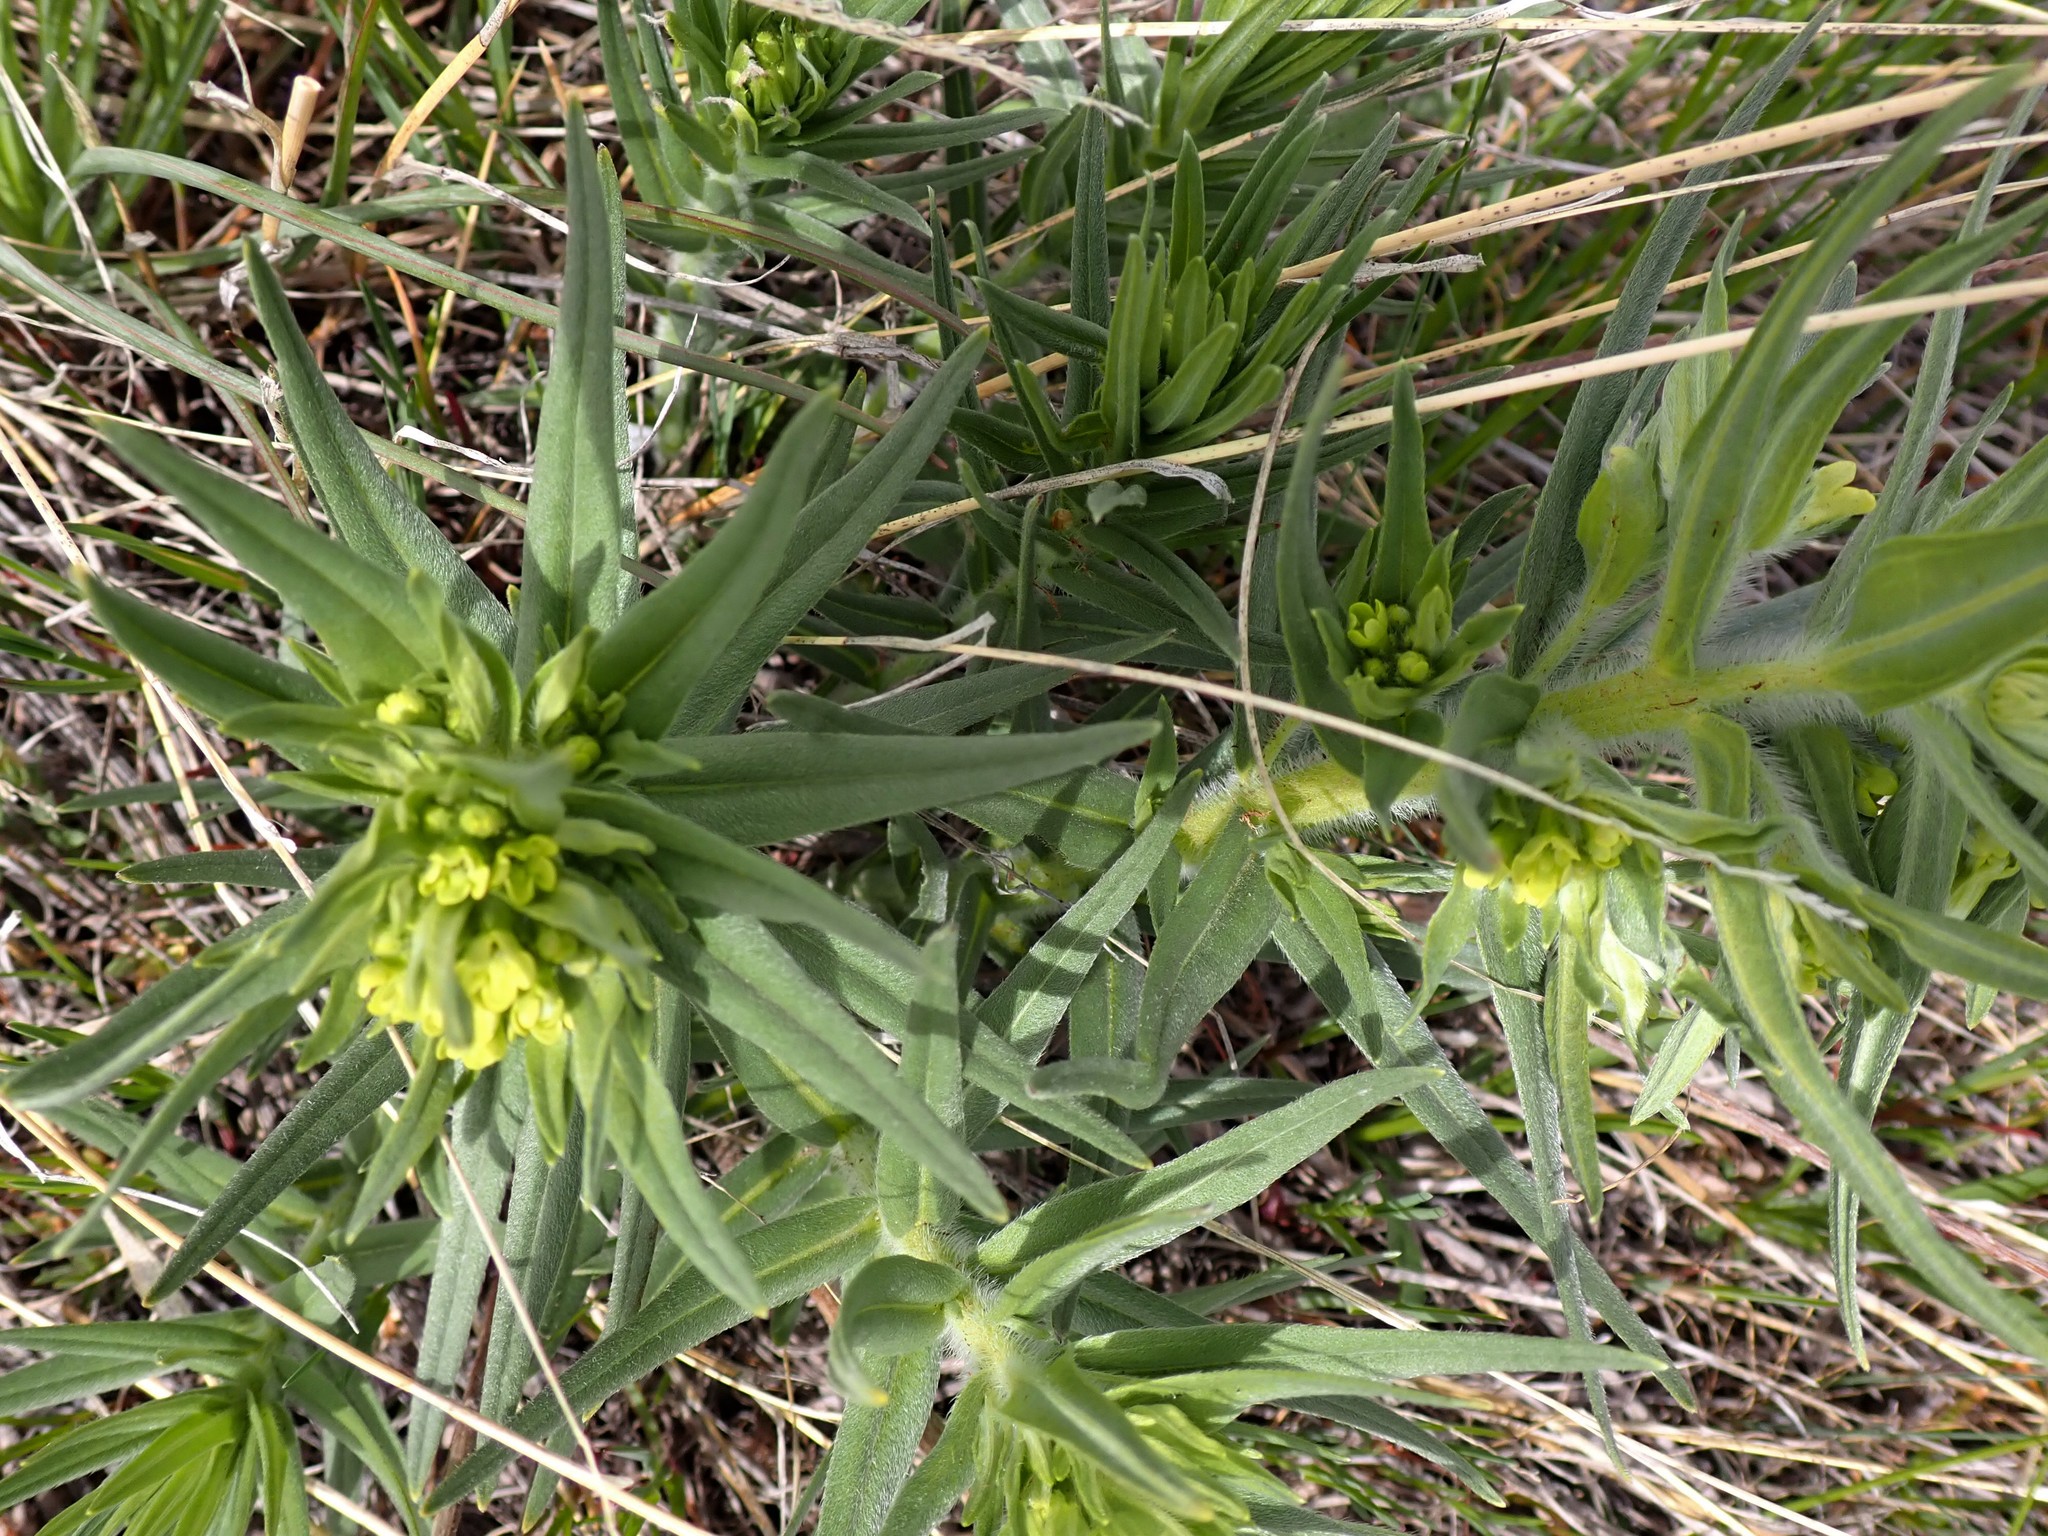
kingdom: Plantae
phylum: Tracheophyta
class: Magnoliopsida
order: Boraginales
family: Boraginaceae
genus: Lithospermum
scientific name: Lithospermum ruderale
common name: Western gromwell
